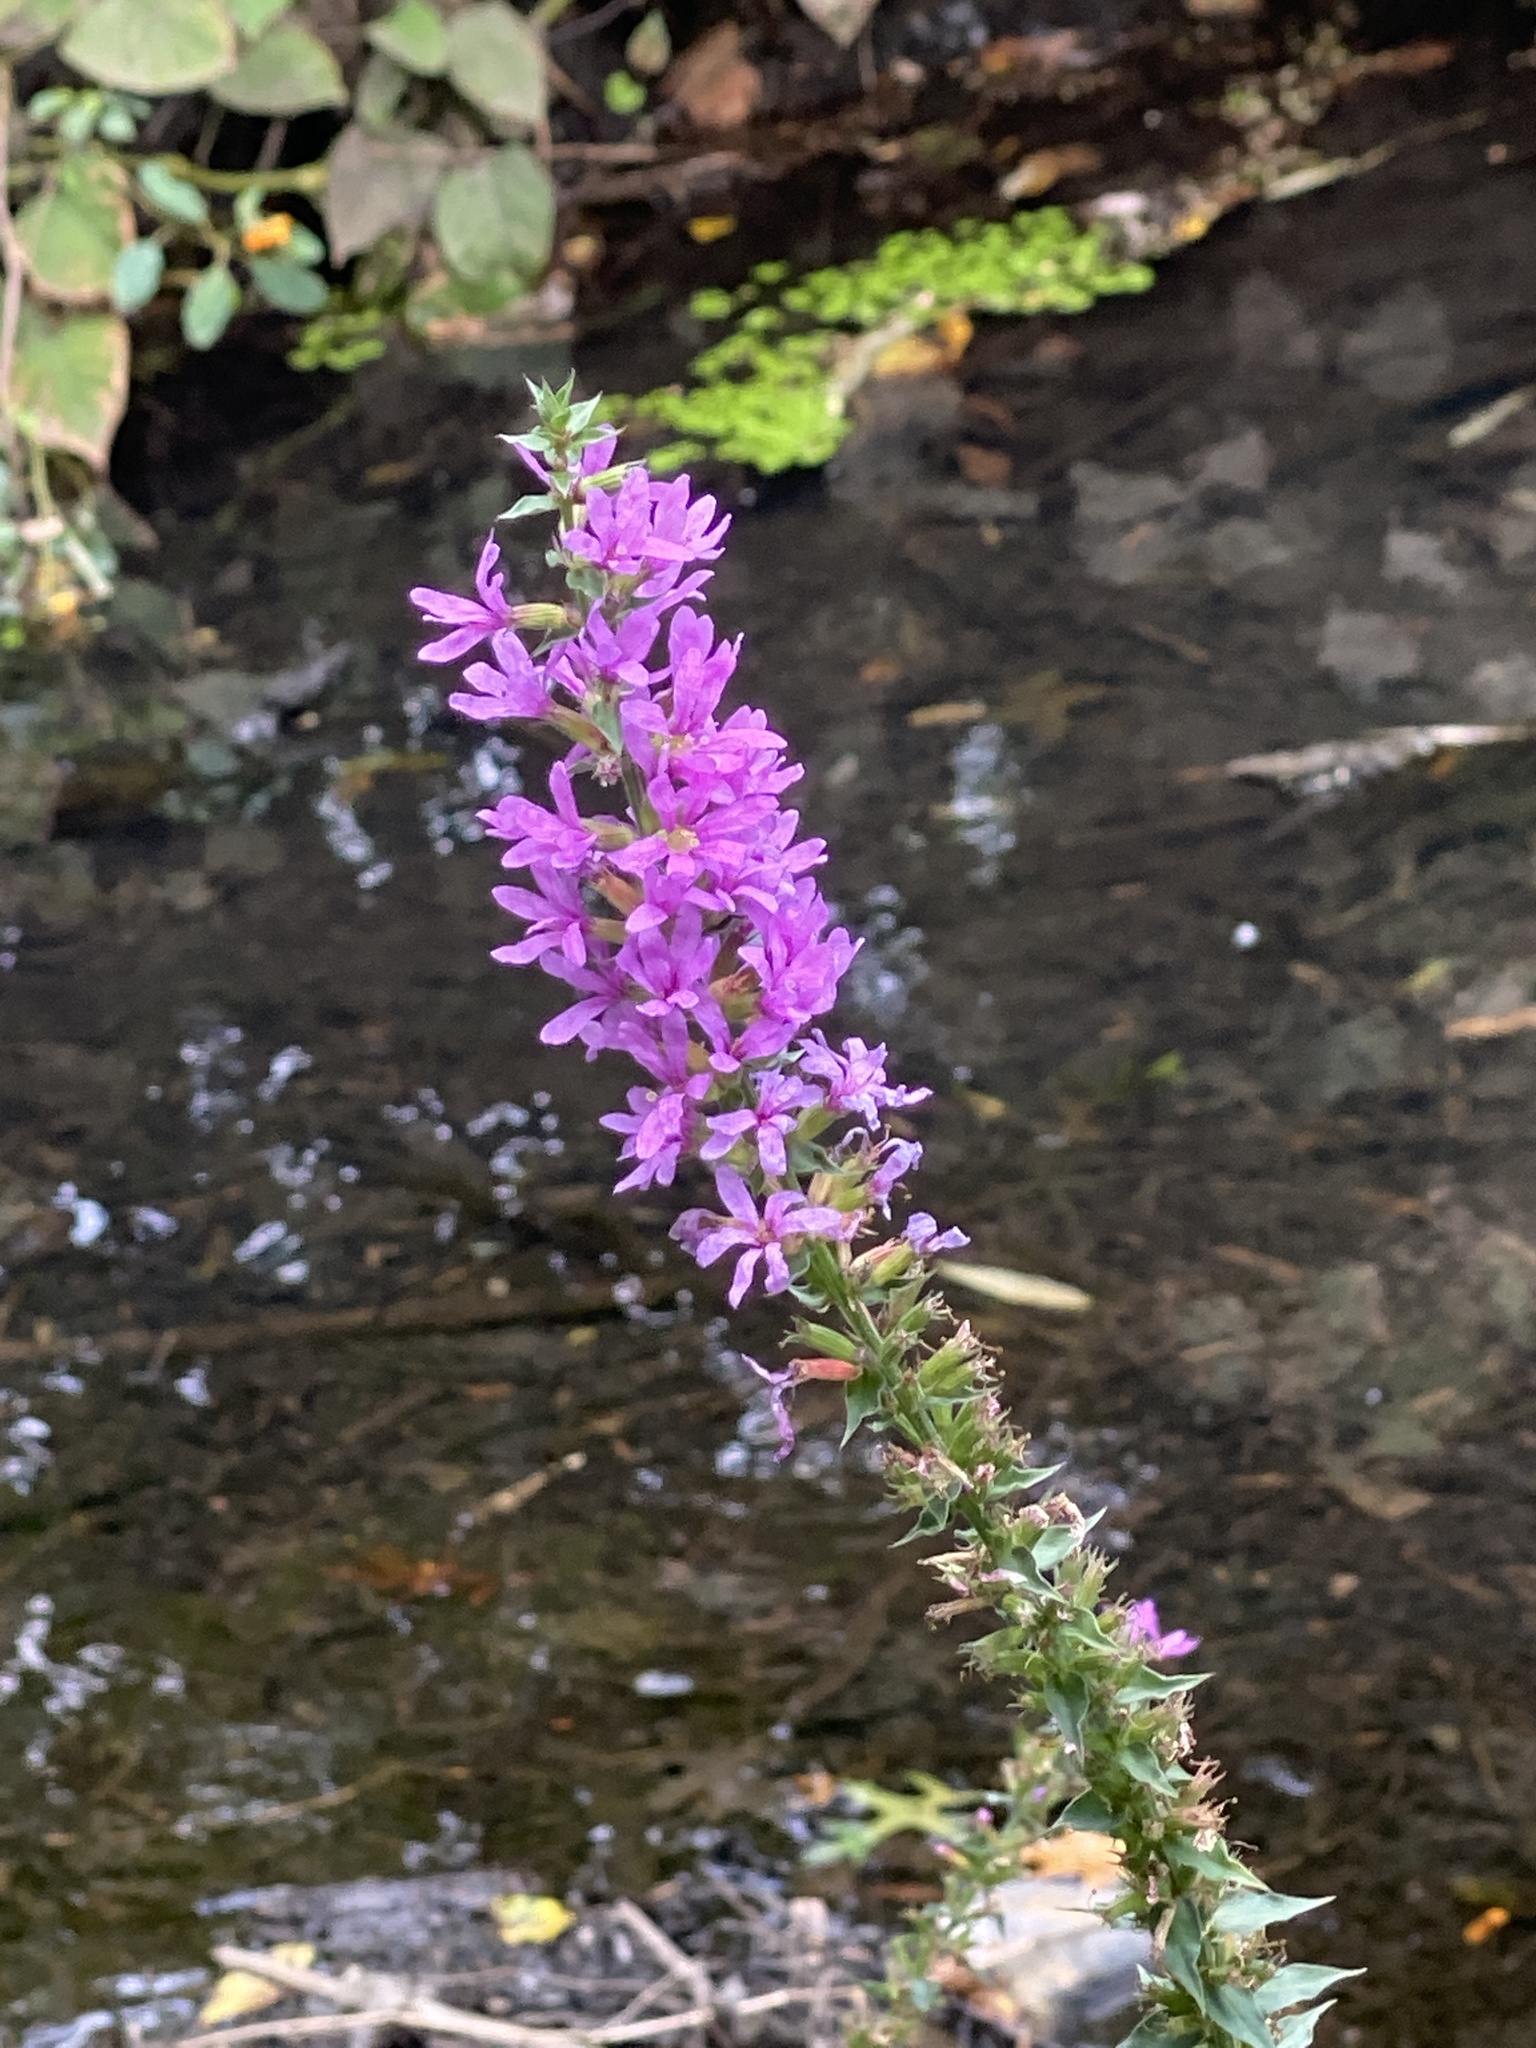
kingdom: Plantae
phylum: Tracheophyta
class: Magnoliopsida
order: Myrtales
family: Lythraceae
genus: Lythrum
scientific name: Lythrum salicaria
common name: Purple loosestrife
